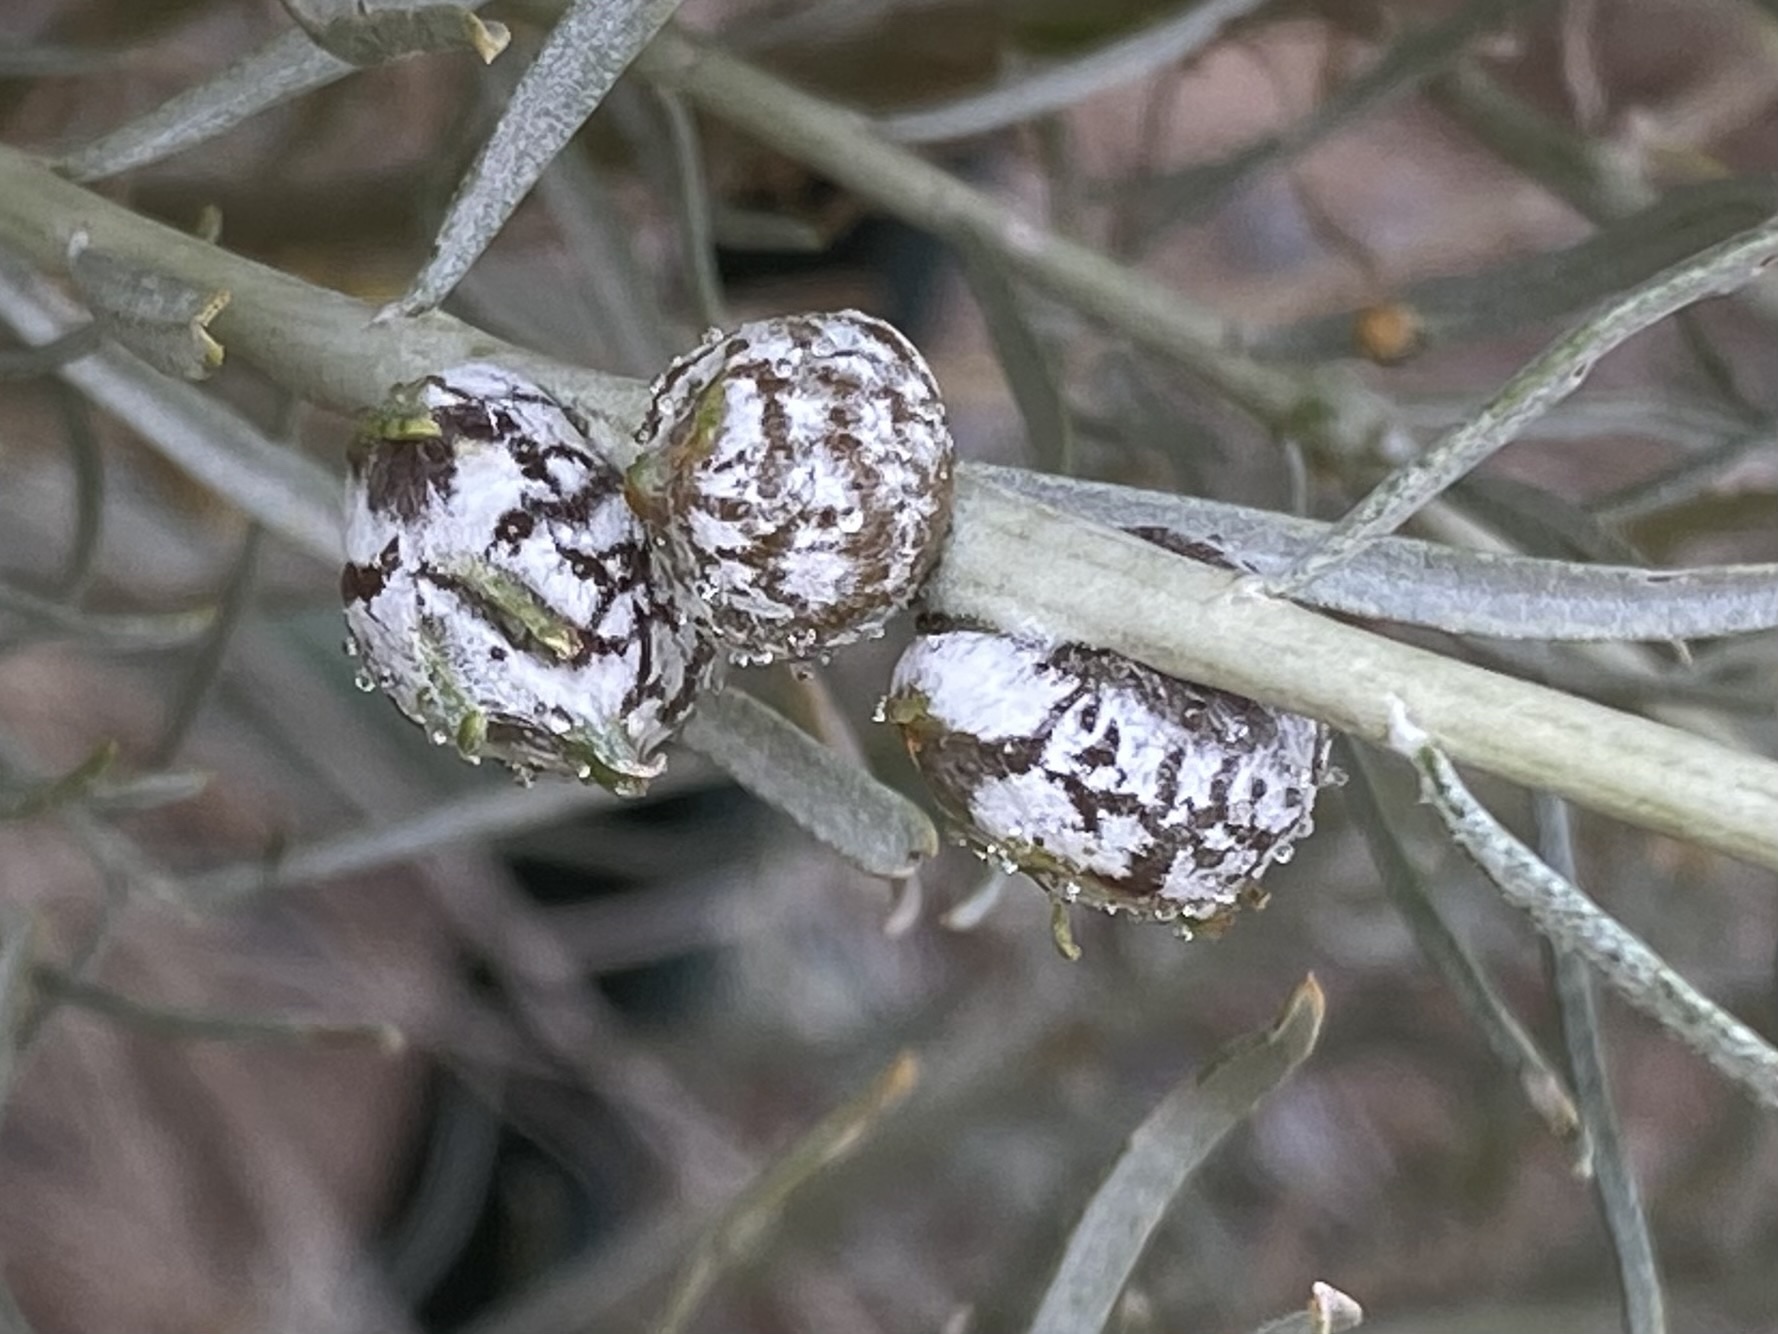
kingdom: Animalia
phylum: Arthropoda
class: Insecta
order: Diptera
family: Tephritidae
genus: Aciurina
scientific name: Aciurina trixa
